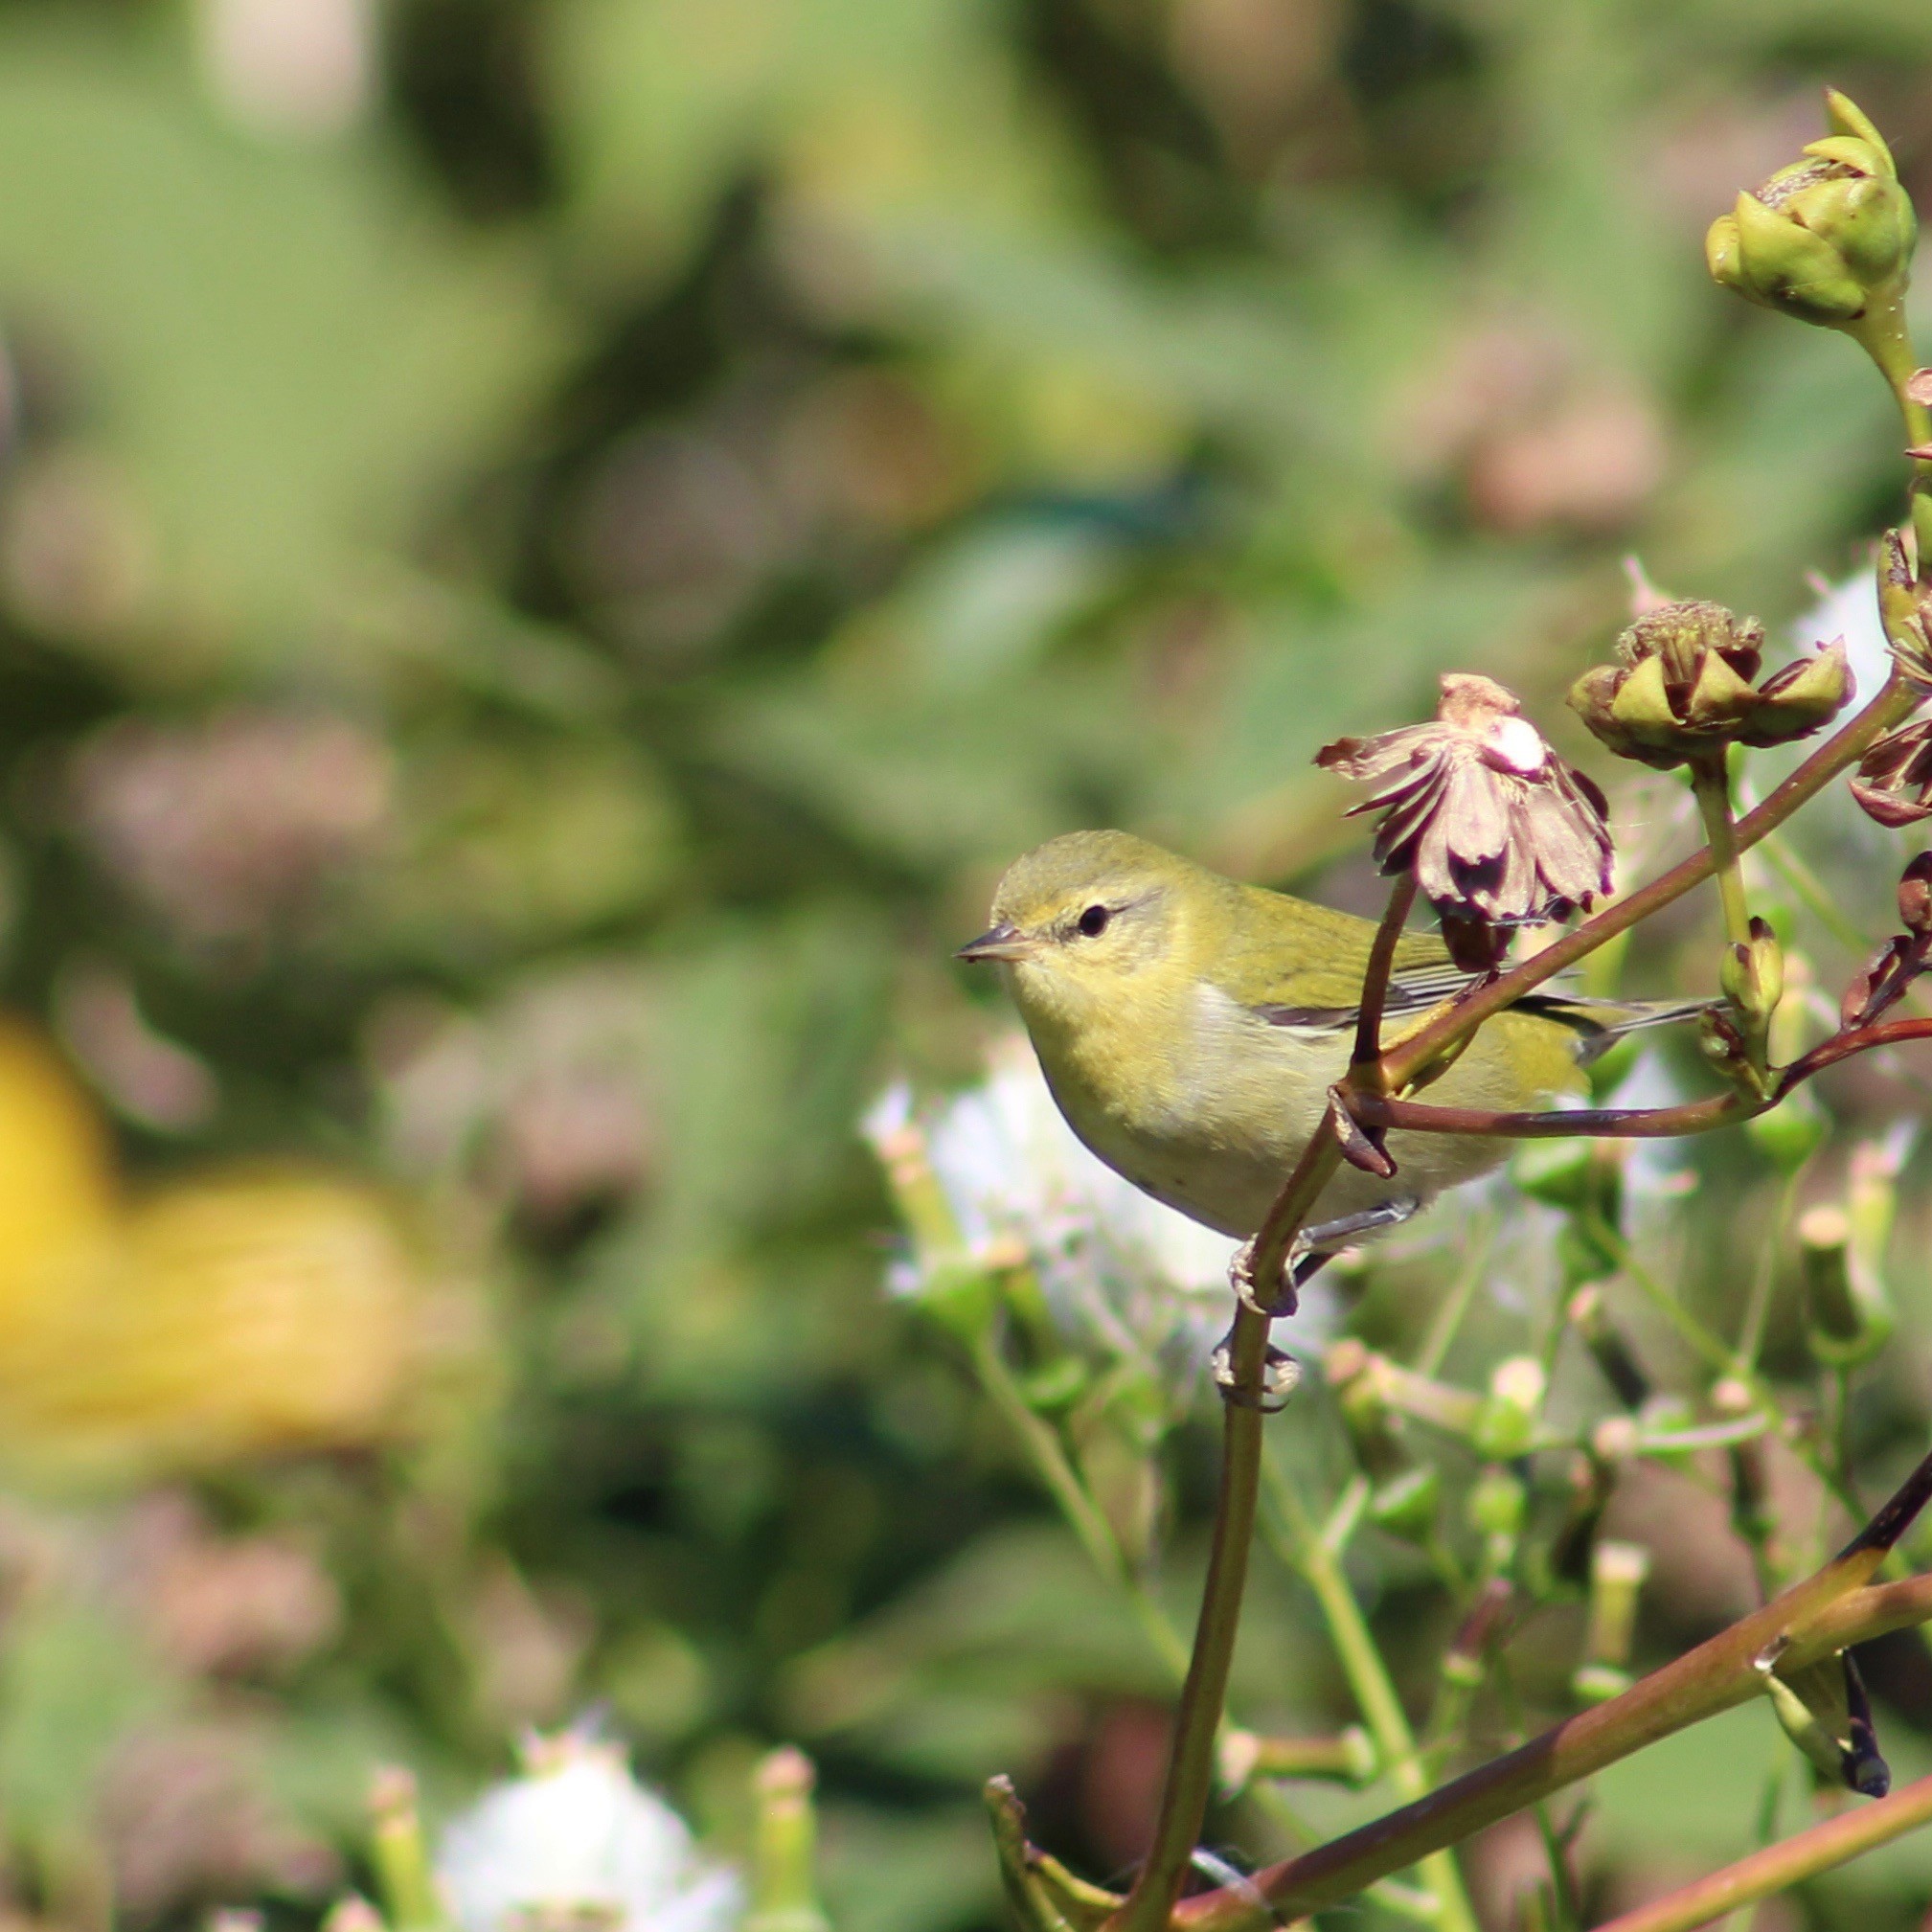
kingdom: Animalia
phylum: Chordata
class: Aves
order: Passeriformes
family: Parulidae
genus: Leiothlypis
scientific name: Leiothlypis peregrina
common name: Tennessee warbler
